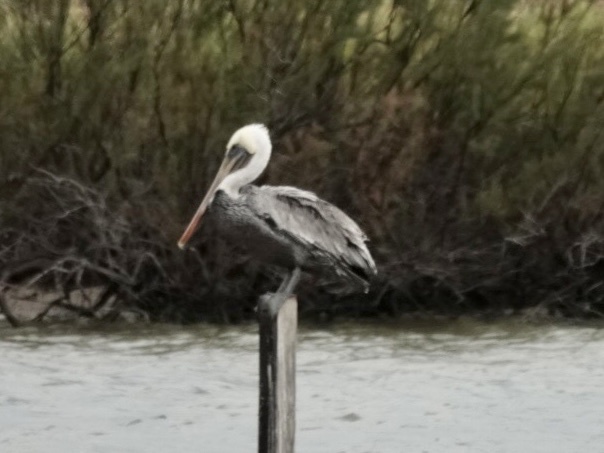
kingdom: Animalia
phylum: Chordata
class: Aves
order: Pelecaniformes
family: Pelecanidae
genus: Pelecanus
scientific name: Pelecanus occidentalis
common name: Brown pelican
